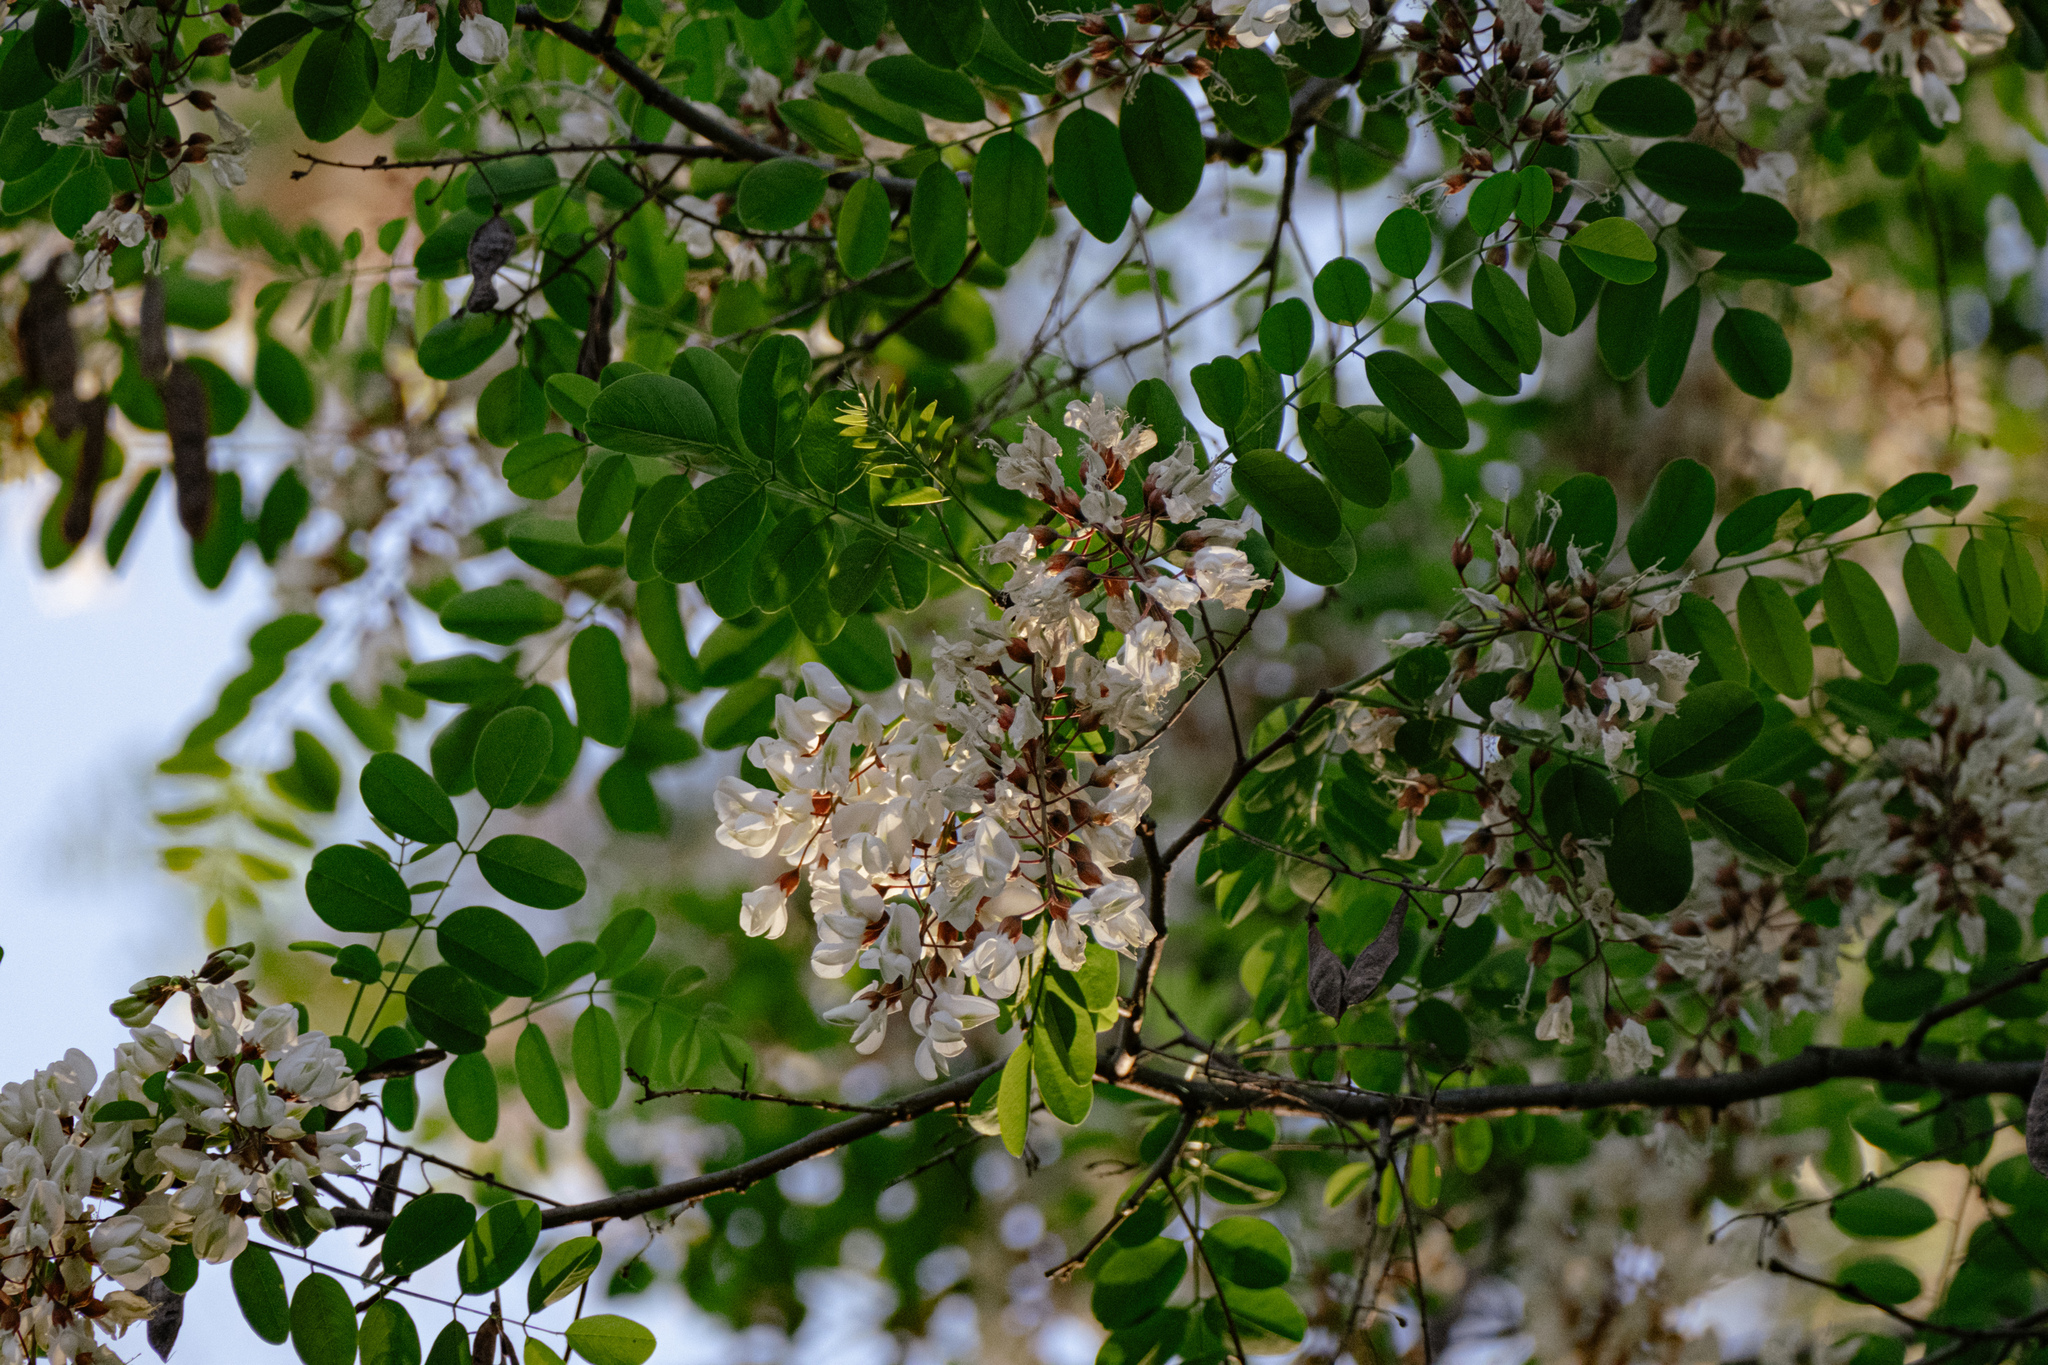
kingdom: Plantae
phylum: Tracheophyta
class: Magnoliopsida
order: Fabales
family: Fabaceae
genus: Robinia
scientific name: Robinia pseudoacacia
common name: Black locust
